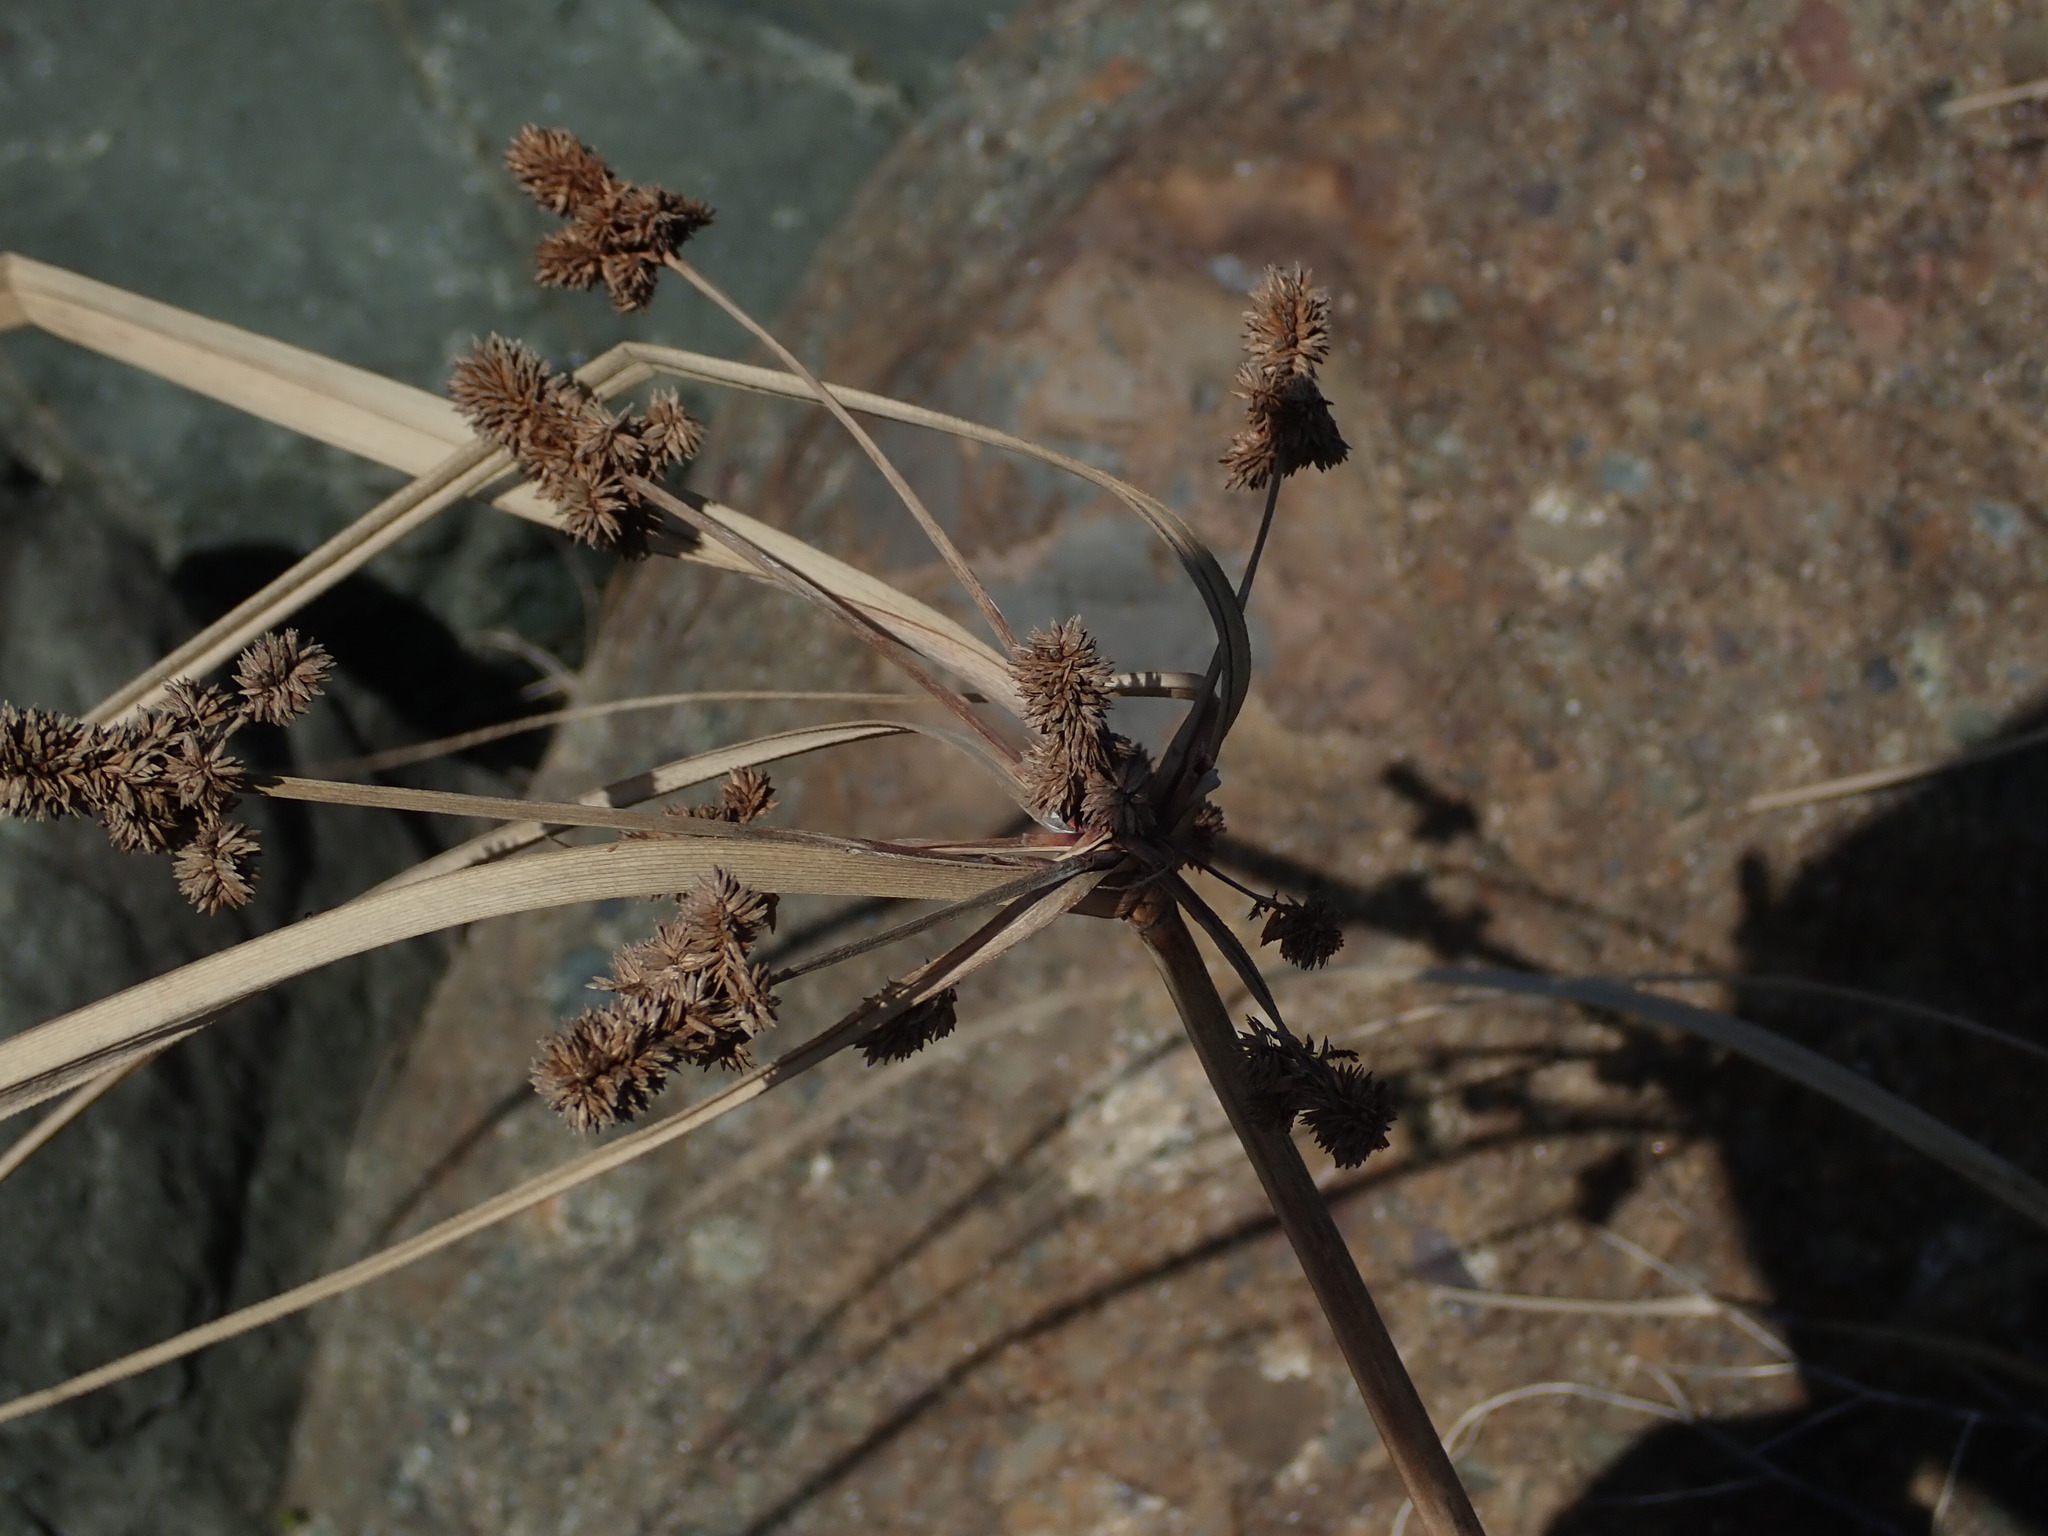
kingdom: Plantae
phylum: Tracheophyta
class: Liliopsida
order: Poales
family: Cyperaceae
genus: Cyperus
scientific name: Cyperus ligularis
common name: Swamp flat sedge
